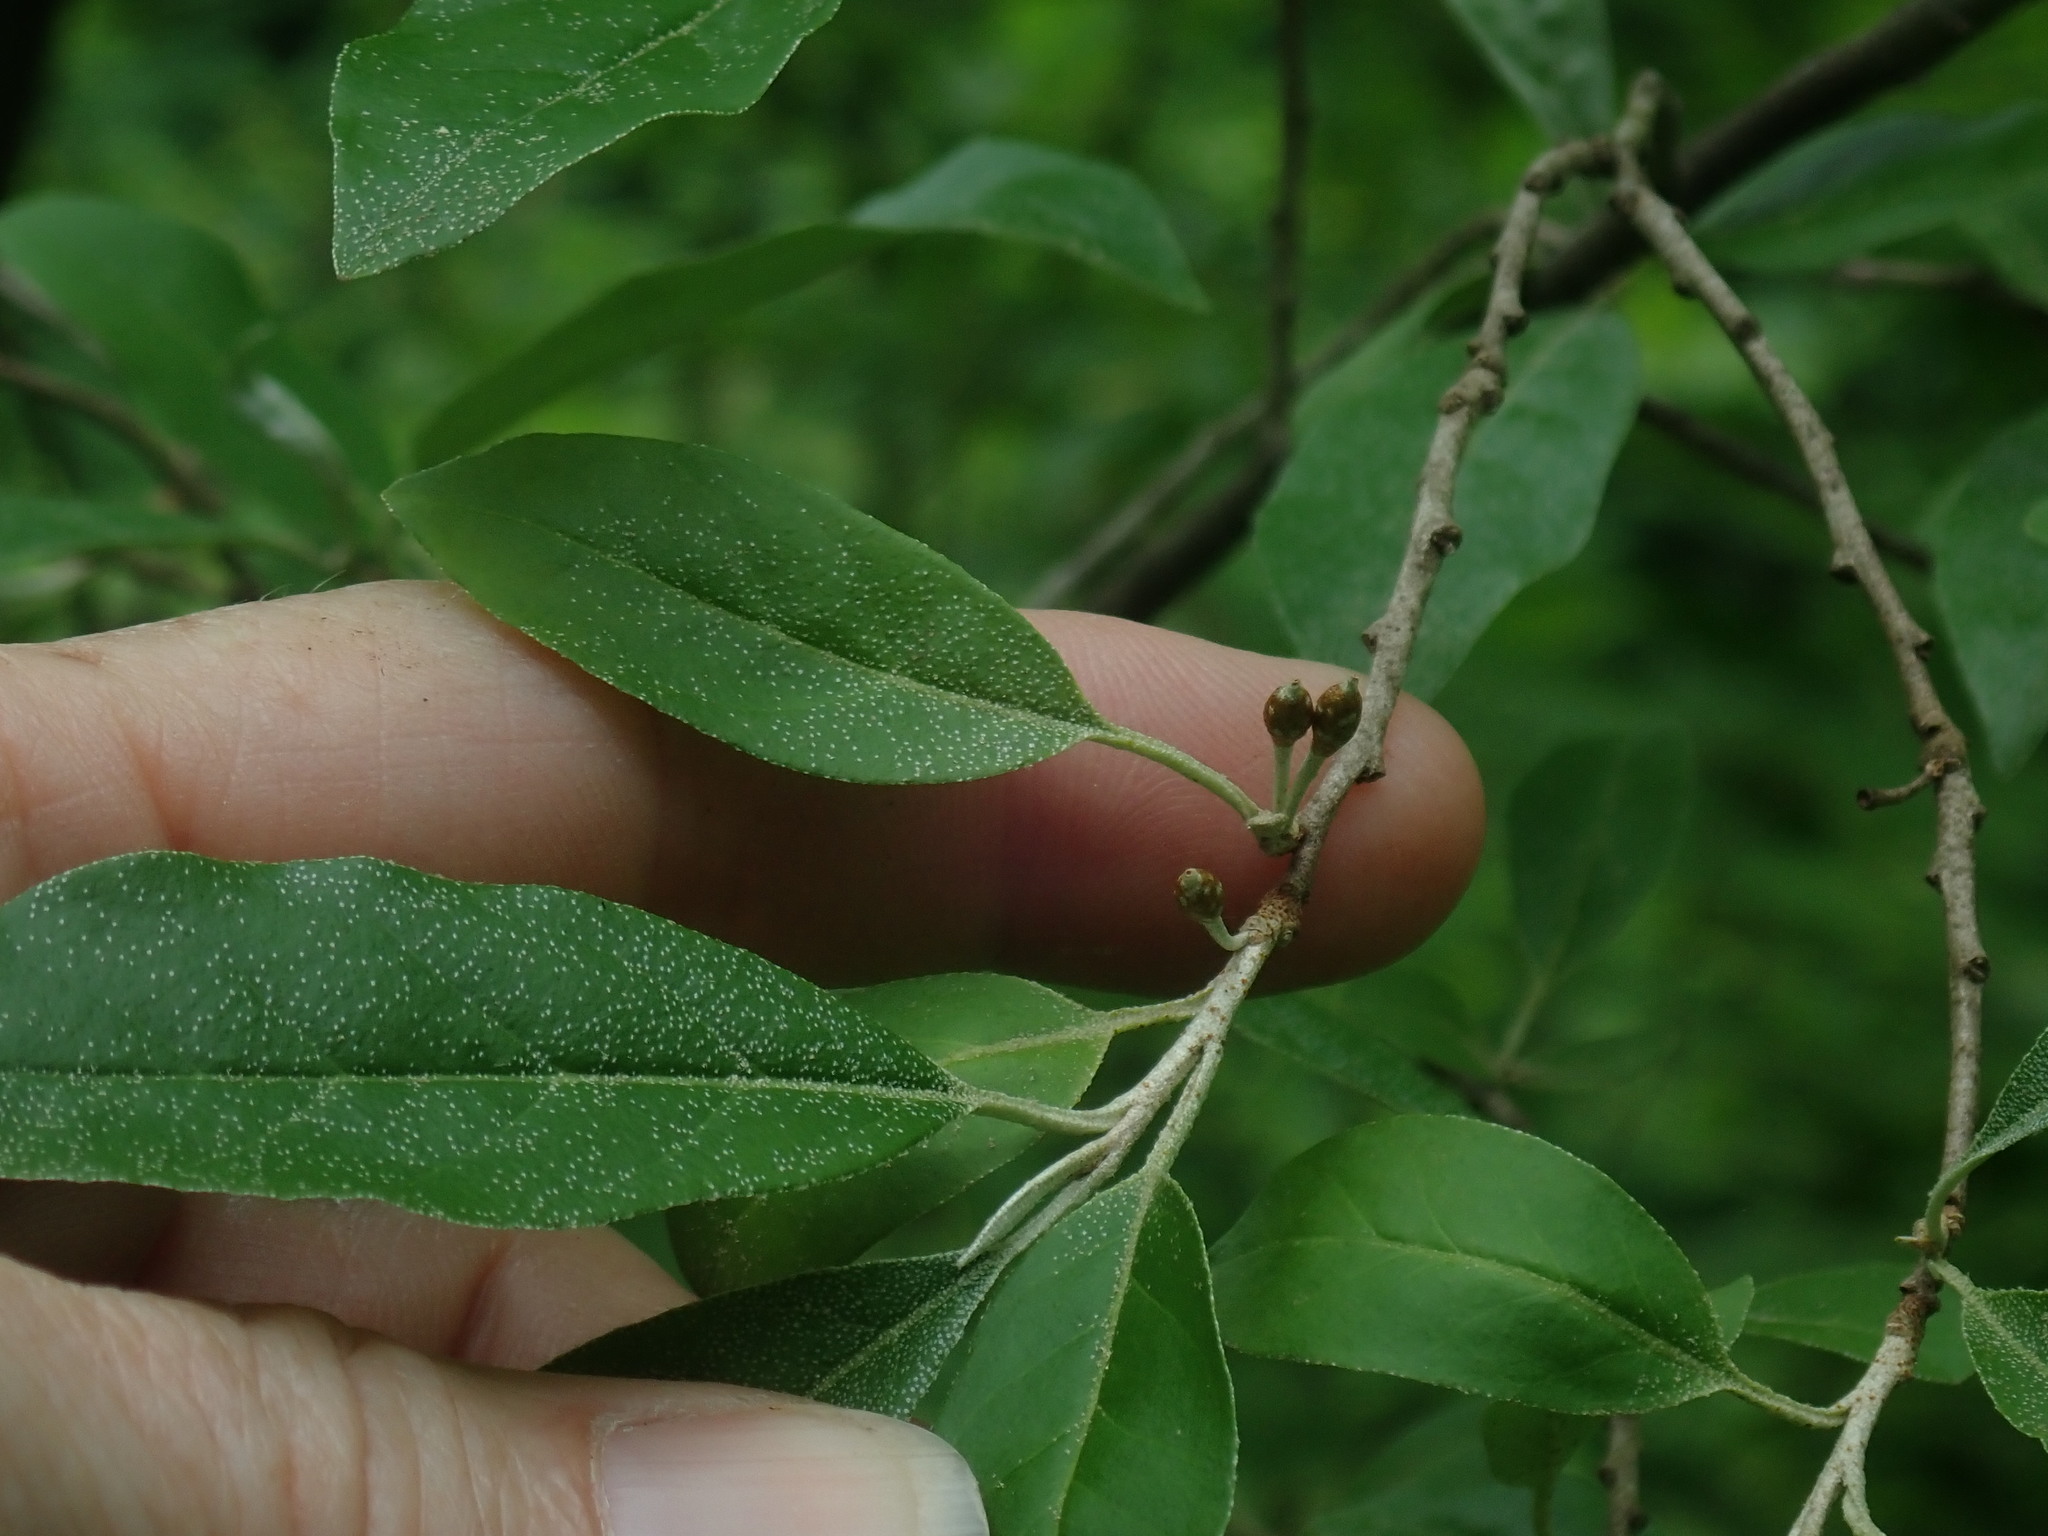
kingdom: Plantae
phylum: Tracheophyta
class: Magnoliopsida
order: Rosales
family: Elaeagnaceae
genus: Elaeagnus
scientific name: Elaeagnus umbellata
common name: Autumn olive
